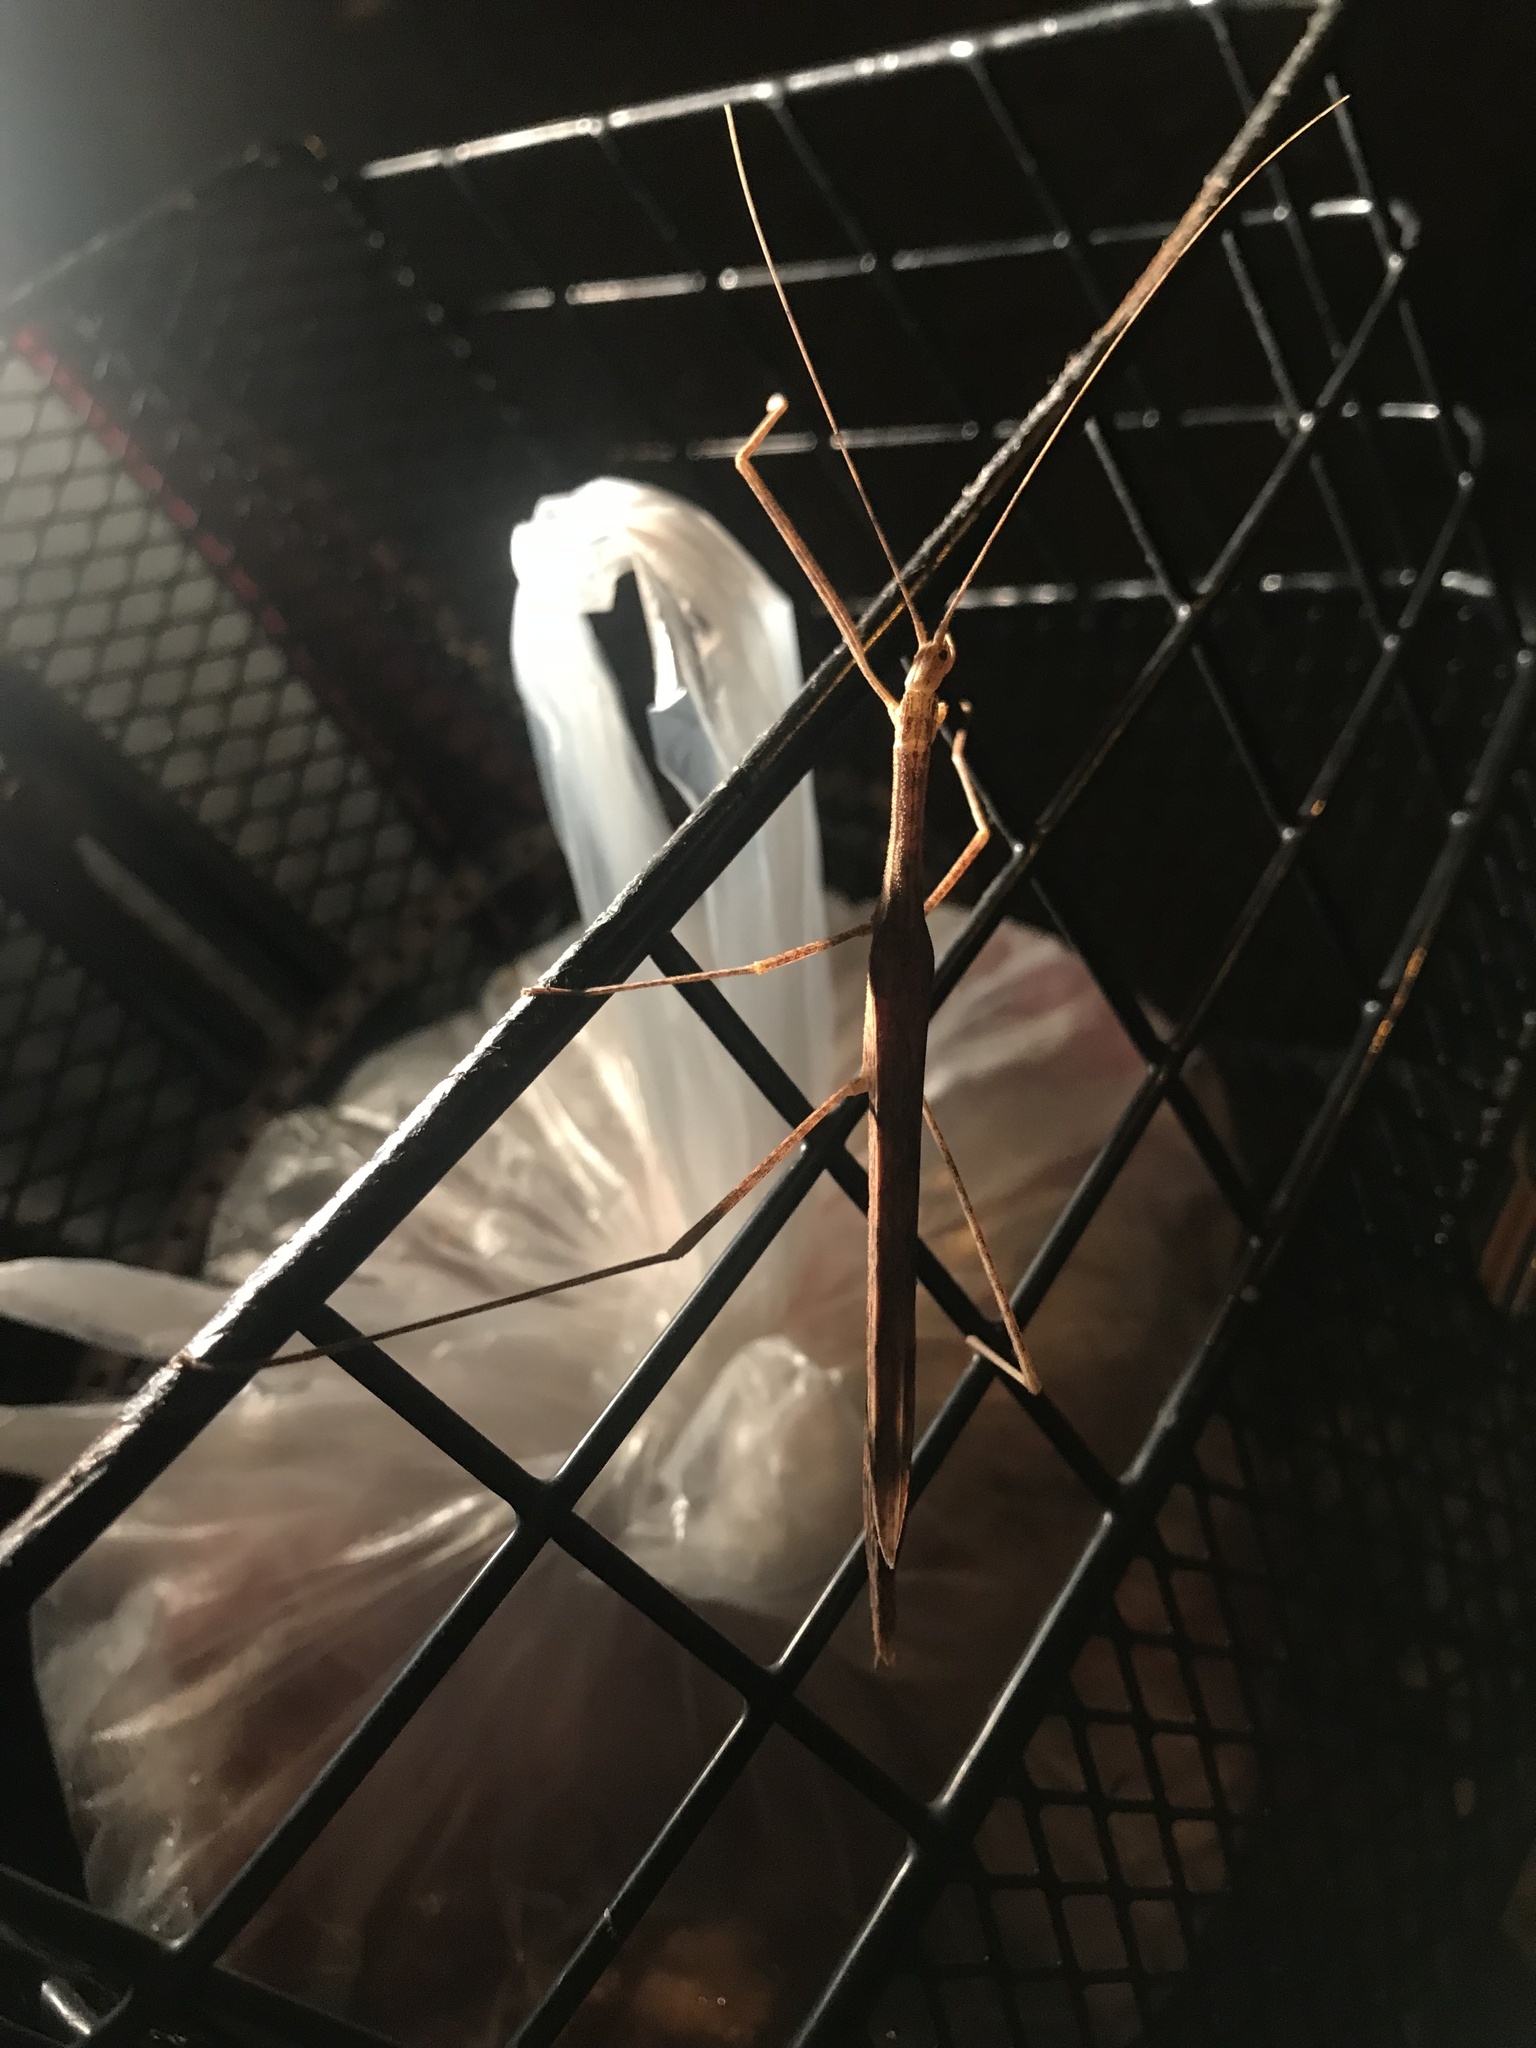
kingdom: Animalia
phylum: Arthropoda
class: Insecta
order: Phasmida
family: Lonchodidae
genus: Sipyloidea
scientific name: Sipyloidea sipylus
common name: Madagascan stick insect
